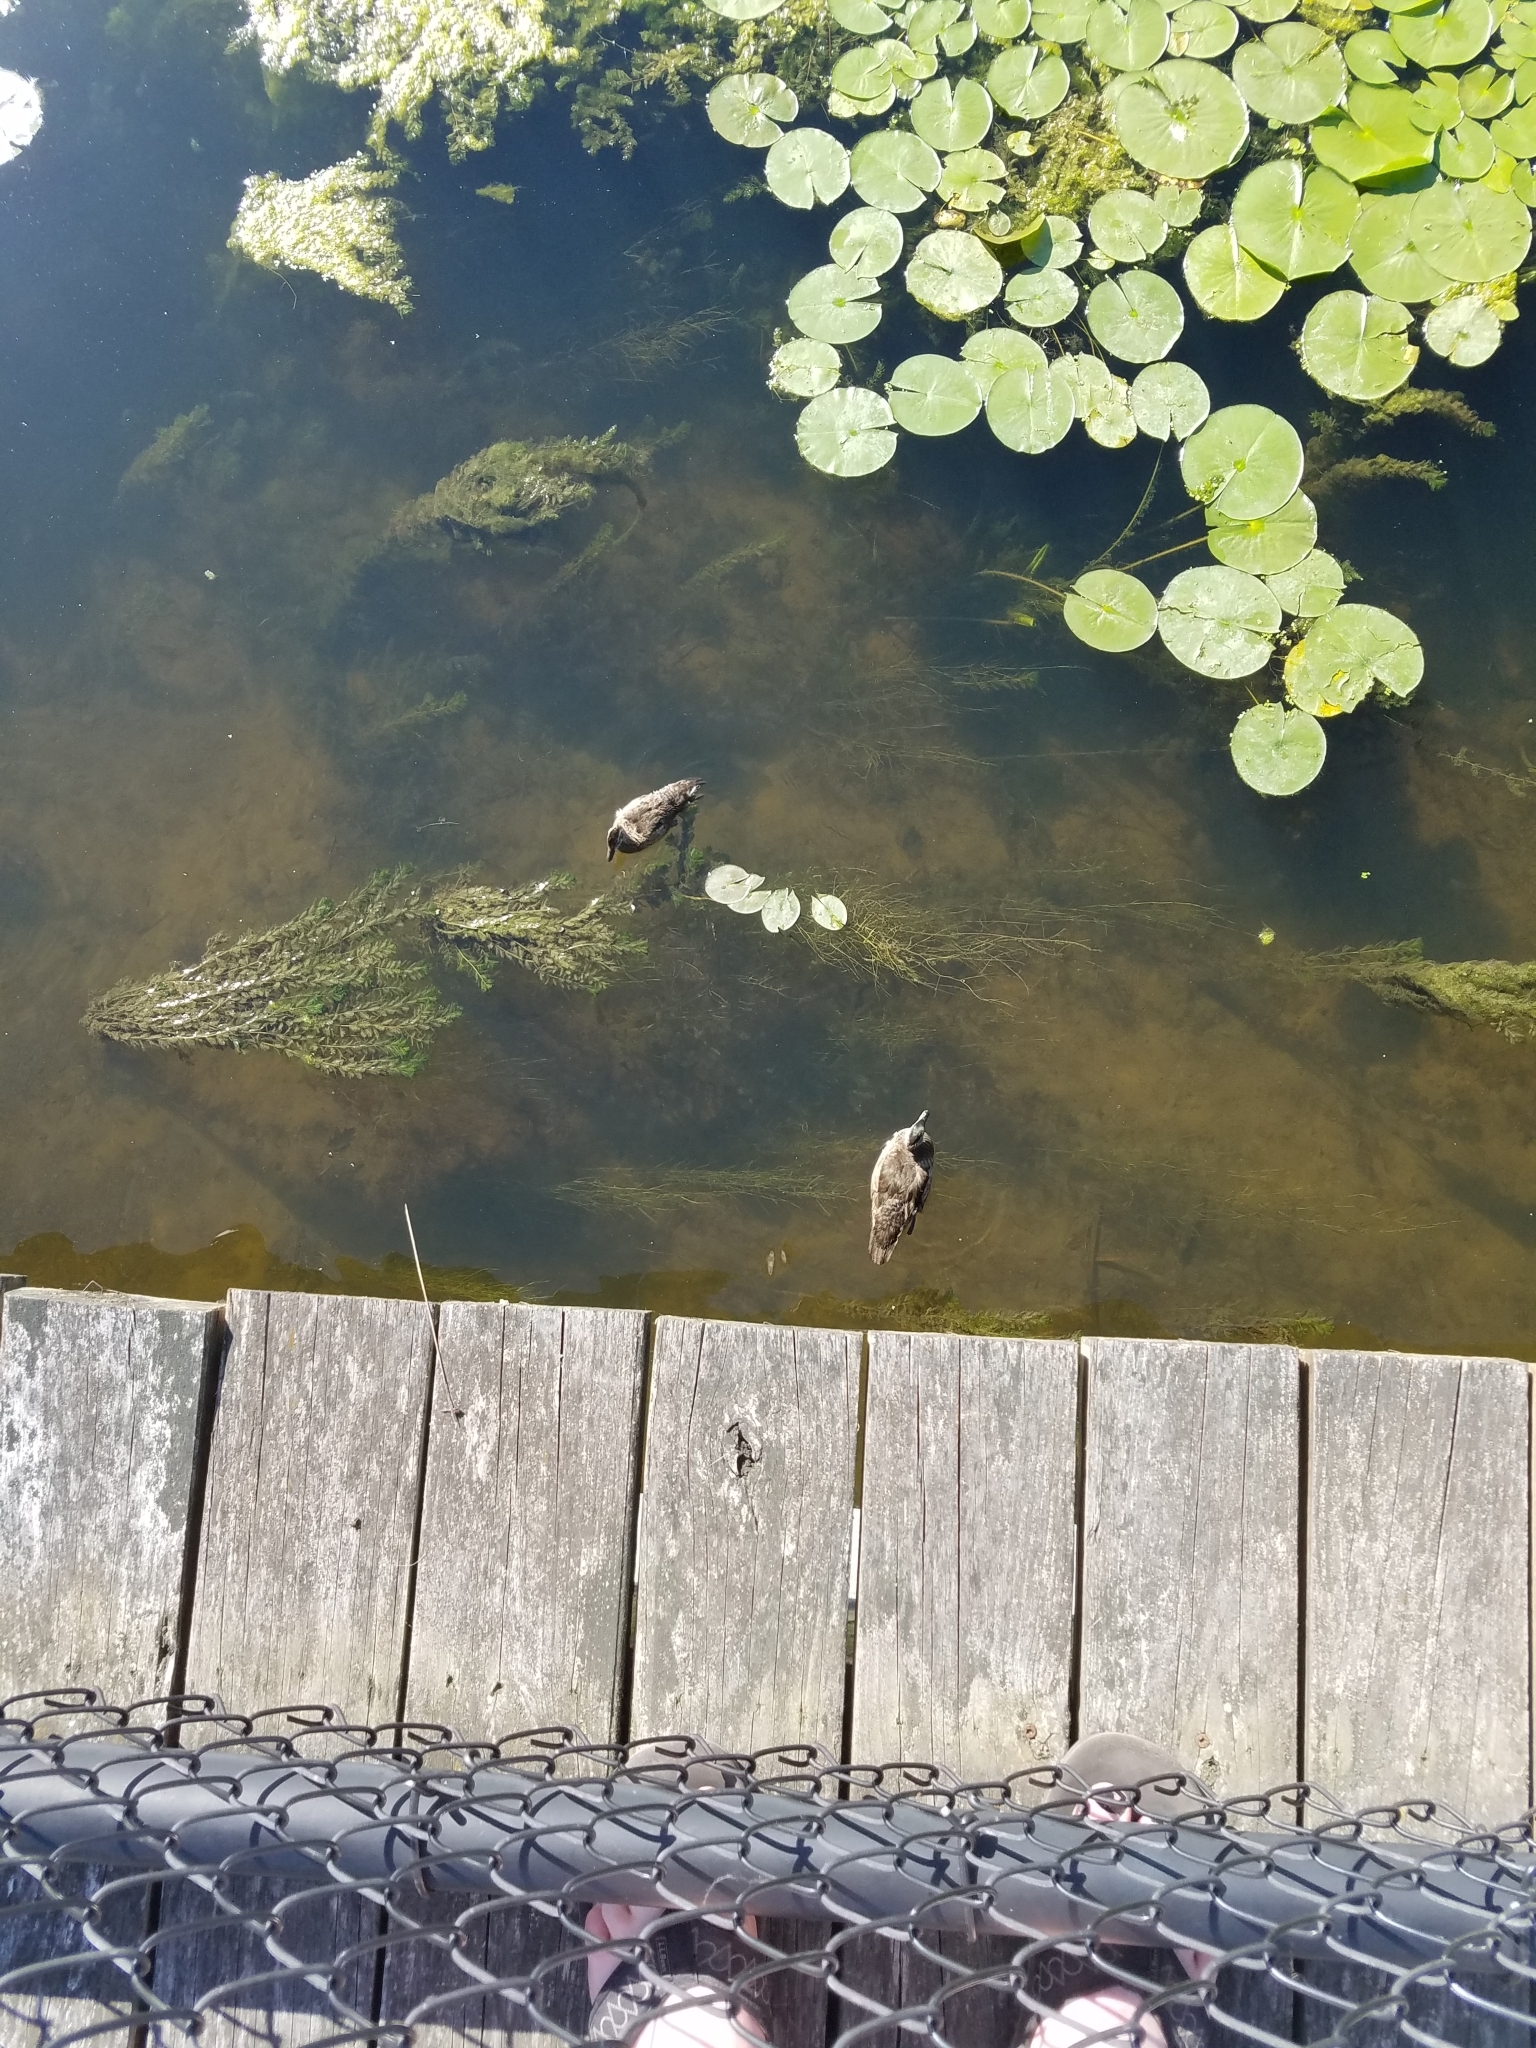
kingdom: Animalia
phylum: Chordata
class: Aves
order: Anseriformes
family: Anatidae
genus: Aix
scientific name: Aix sponsa
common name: Wood duck
